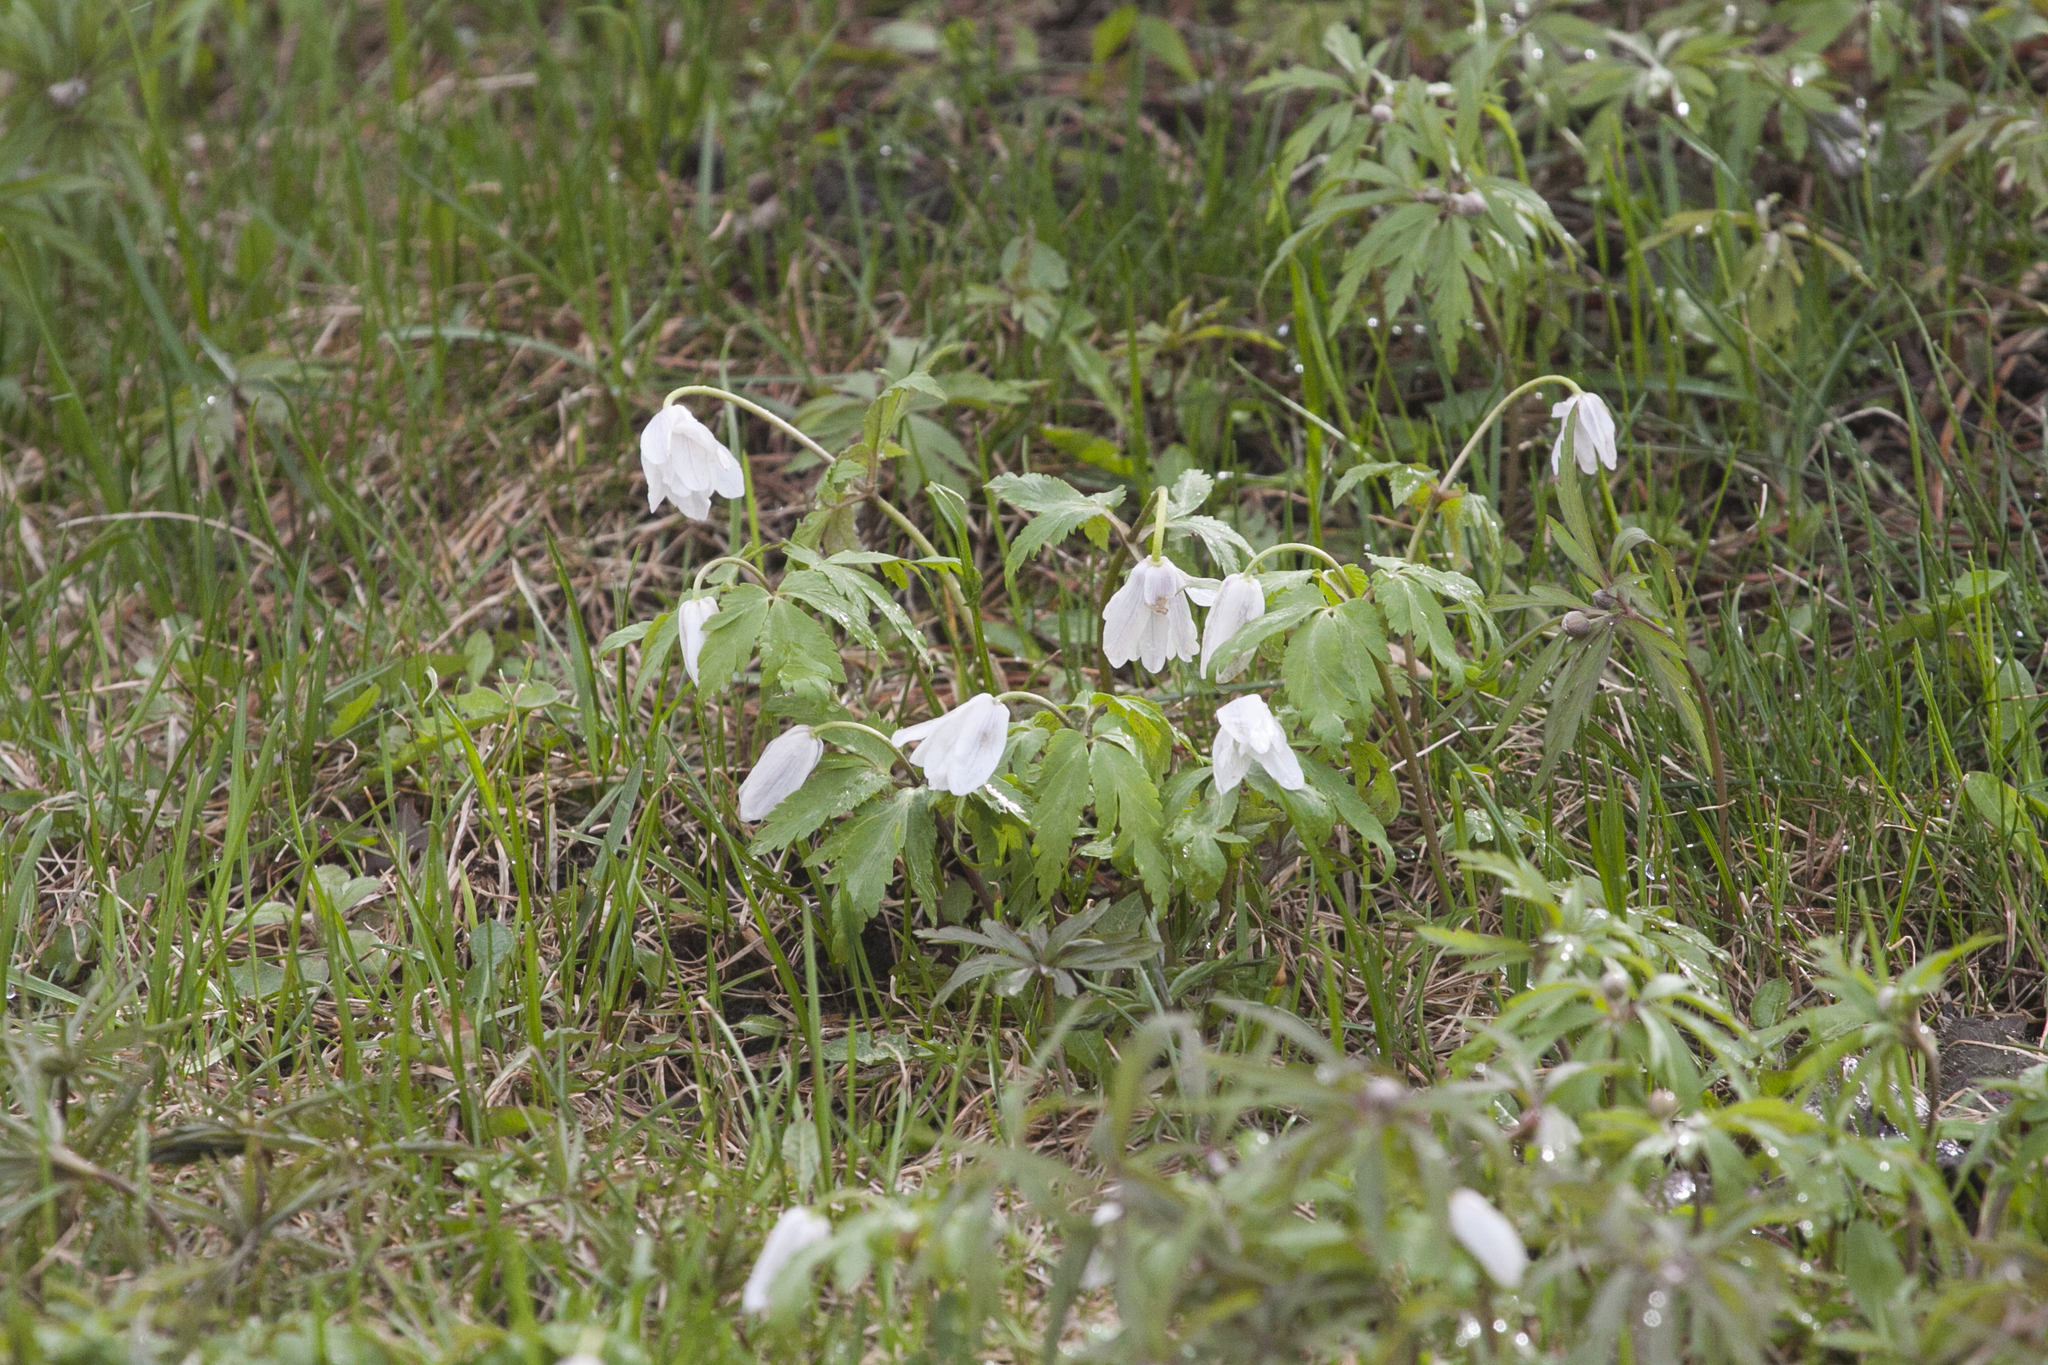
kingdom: Plantae
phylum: Tracheophyta
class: Magnoliopsida
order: Ranunculales
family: Ranunculaceae
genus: Anemone
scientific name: Anemone altaica
